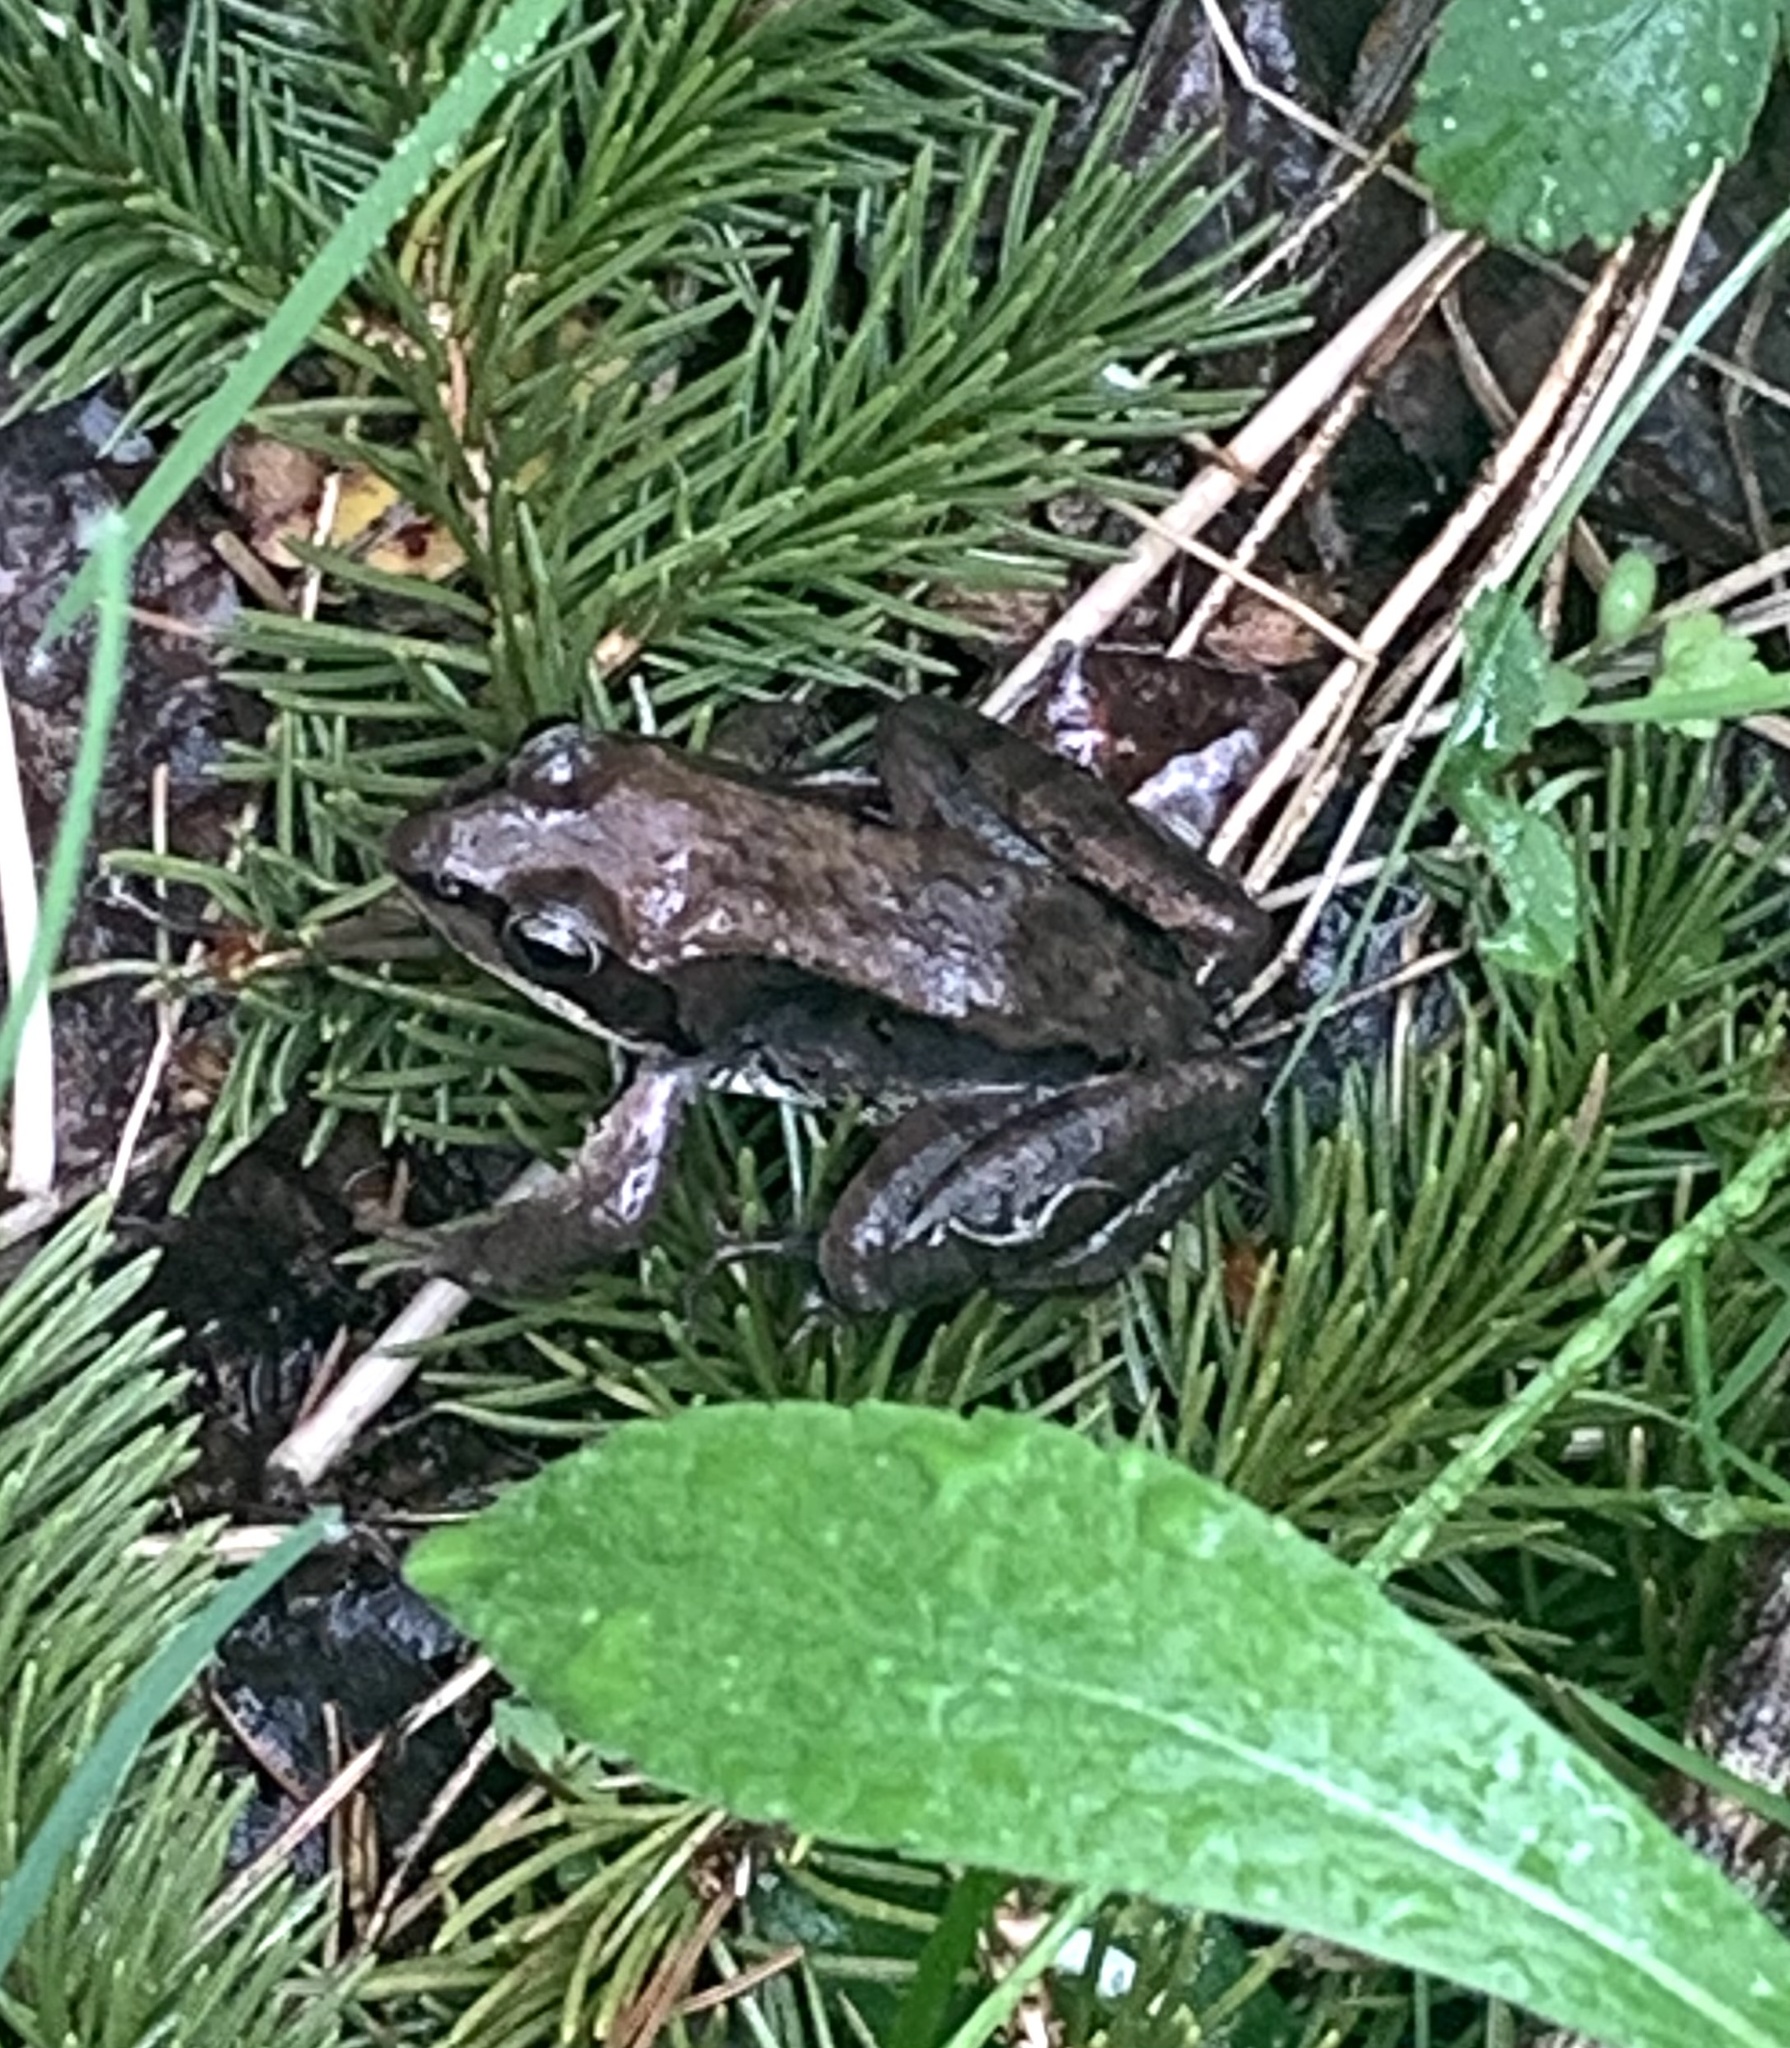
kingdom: Animalia
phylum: Chordata
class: Amphibia
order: Anura
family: Ranidae
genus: Lithobates
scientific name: Lithobates sylvaticus
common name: Wood frog
